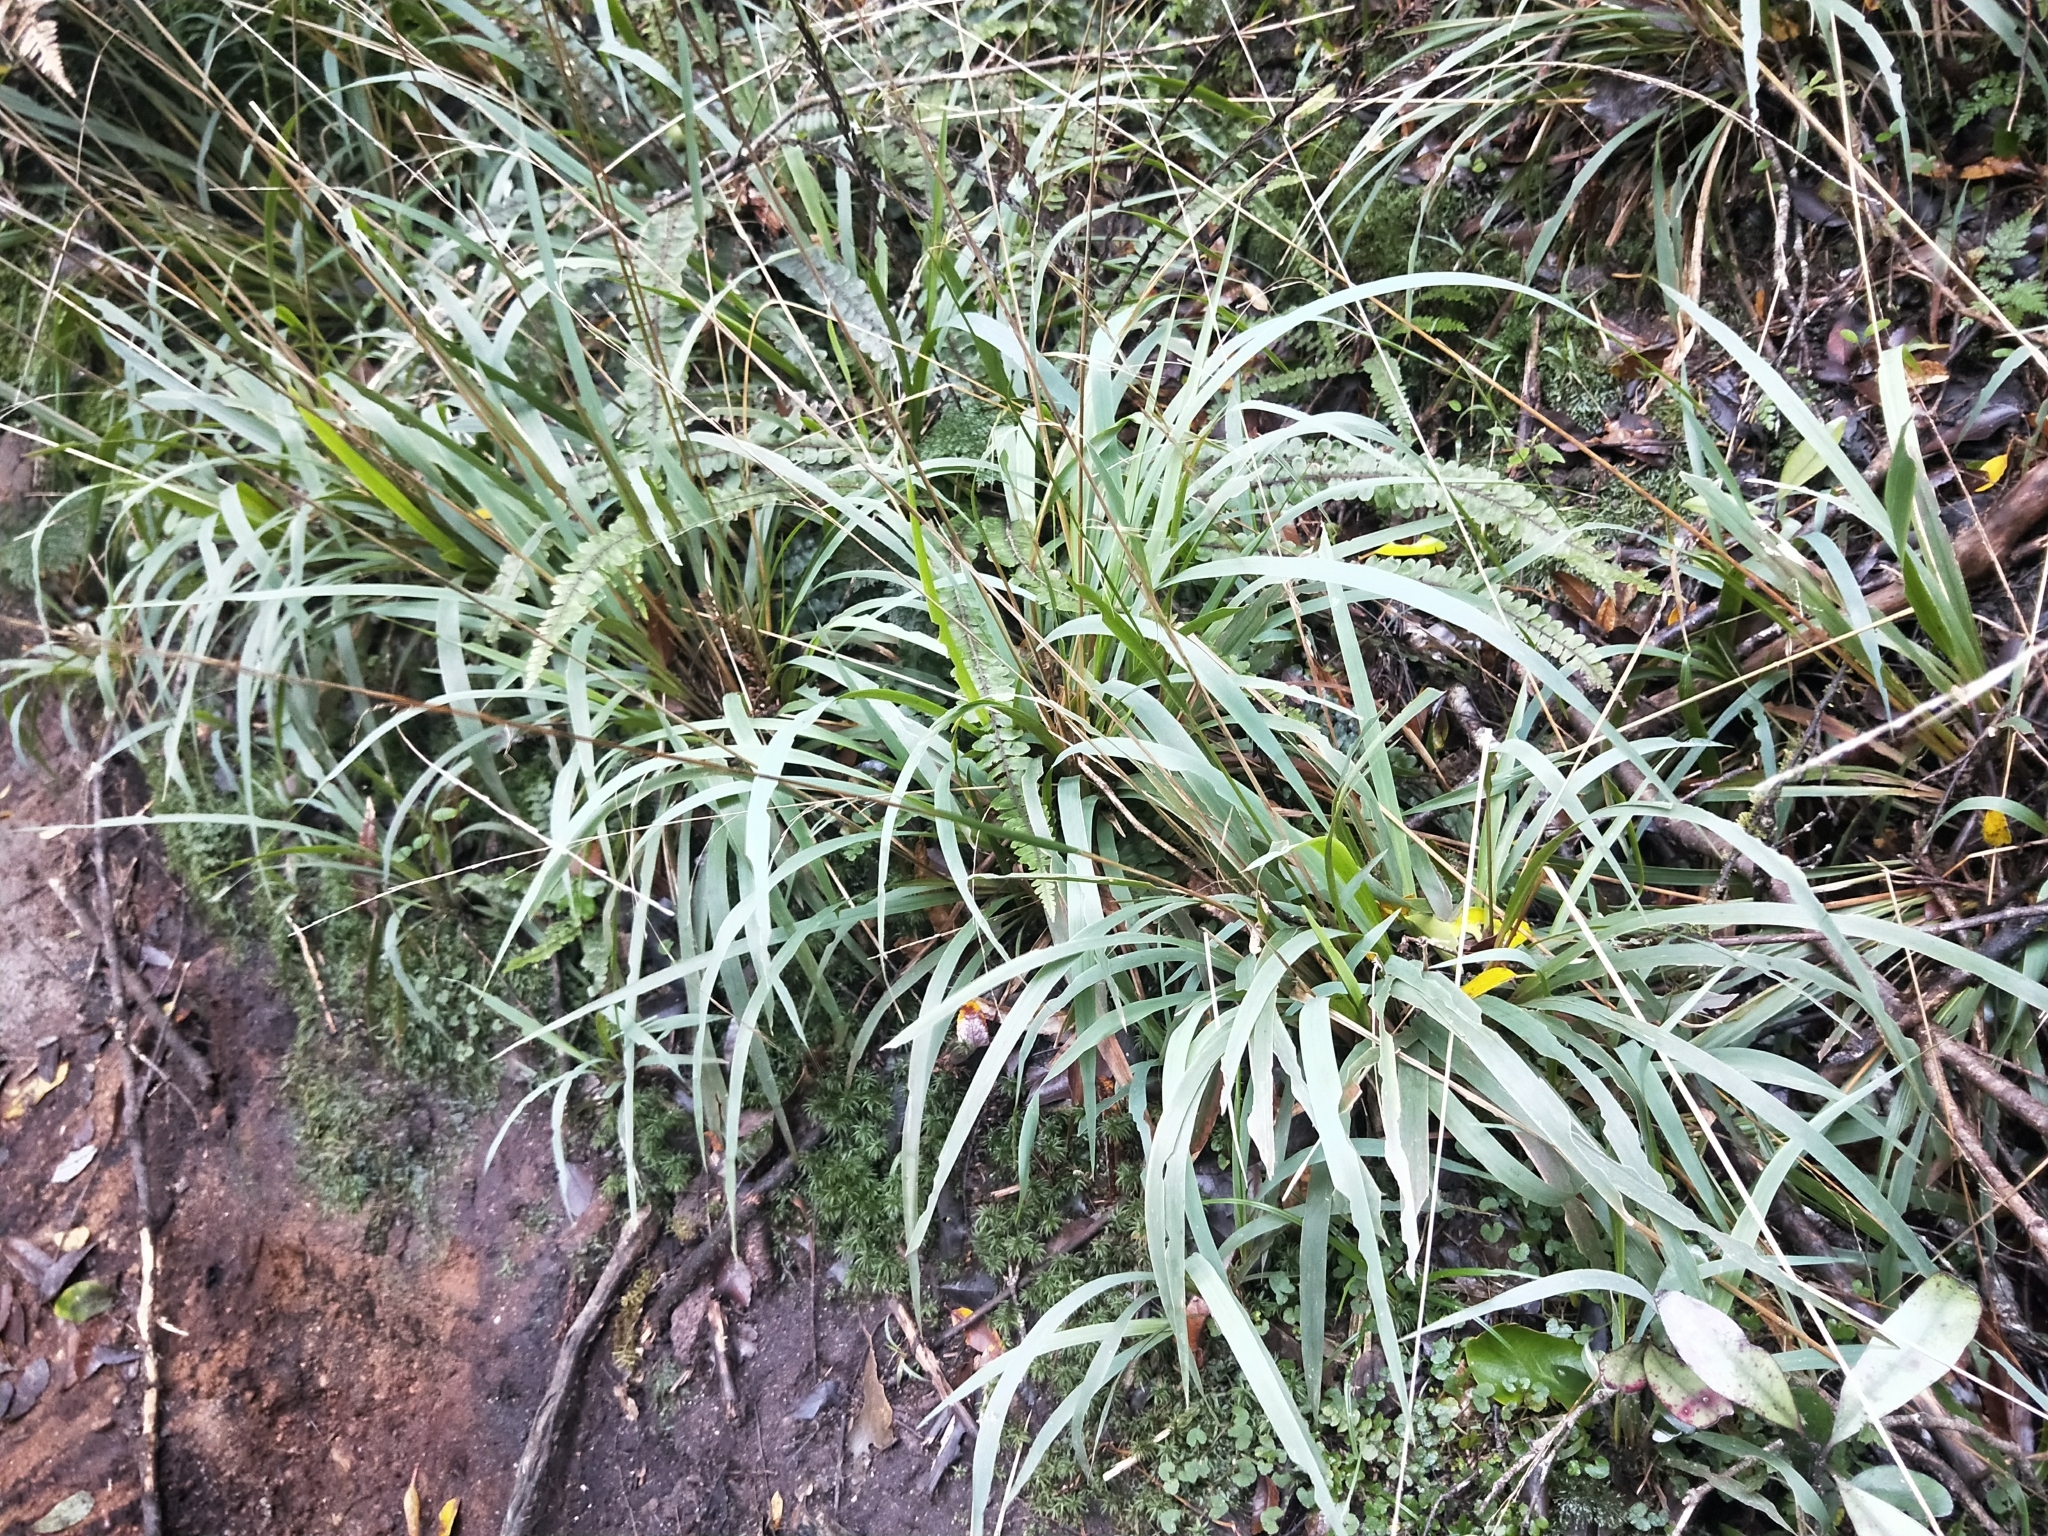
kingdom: Plantae
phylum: Tracheophyta
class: Liliopsida
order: Poales
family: Poaceae
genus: Ehrharta
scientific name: Ehrharta diplax
